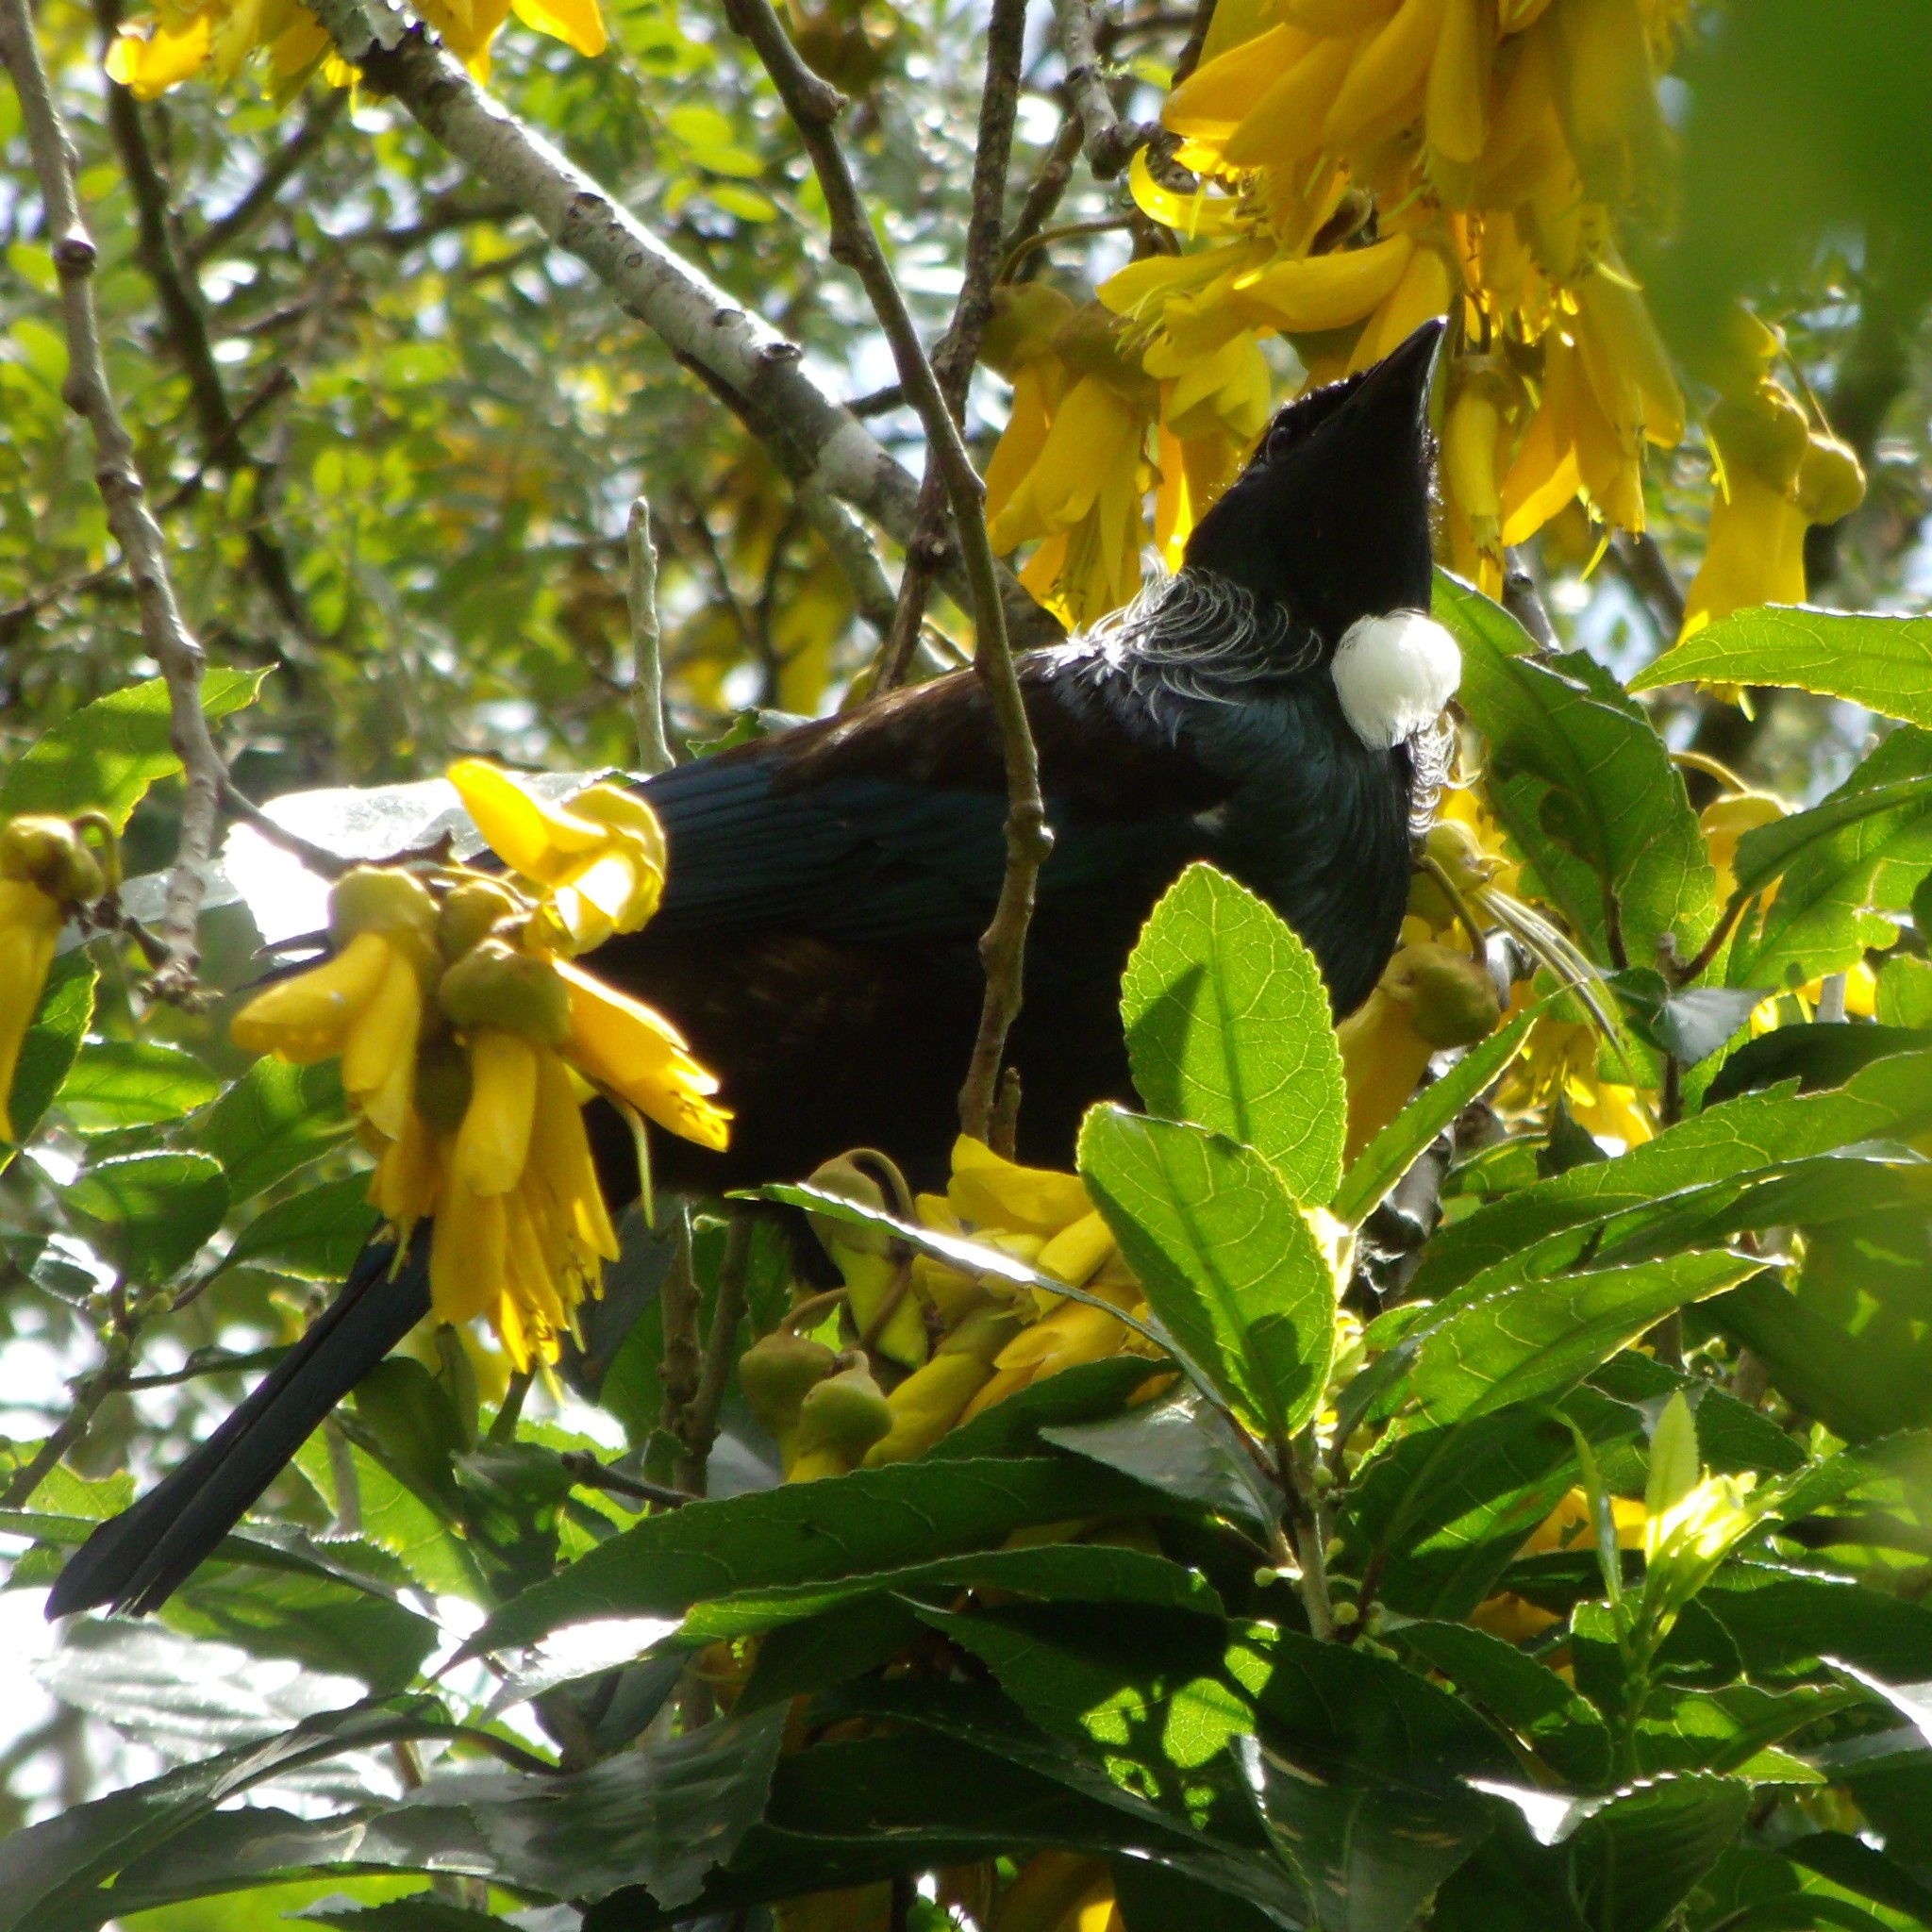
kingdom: Animalia
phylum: Chordata
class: Aves
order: Passeriformes
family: Meliphagidae
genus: Prosthemadera
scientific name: Prosthemadera novaeseelandiae
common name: Tui
